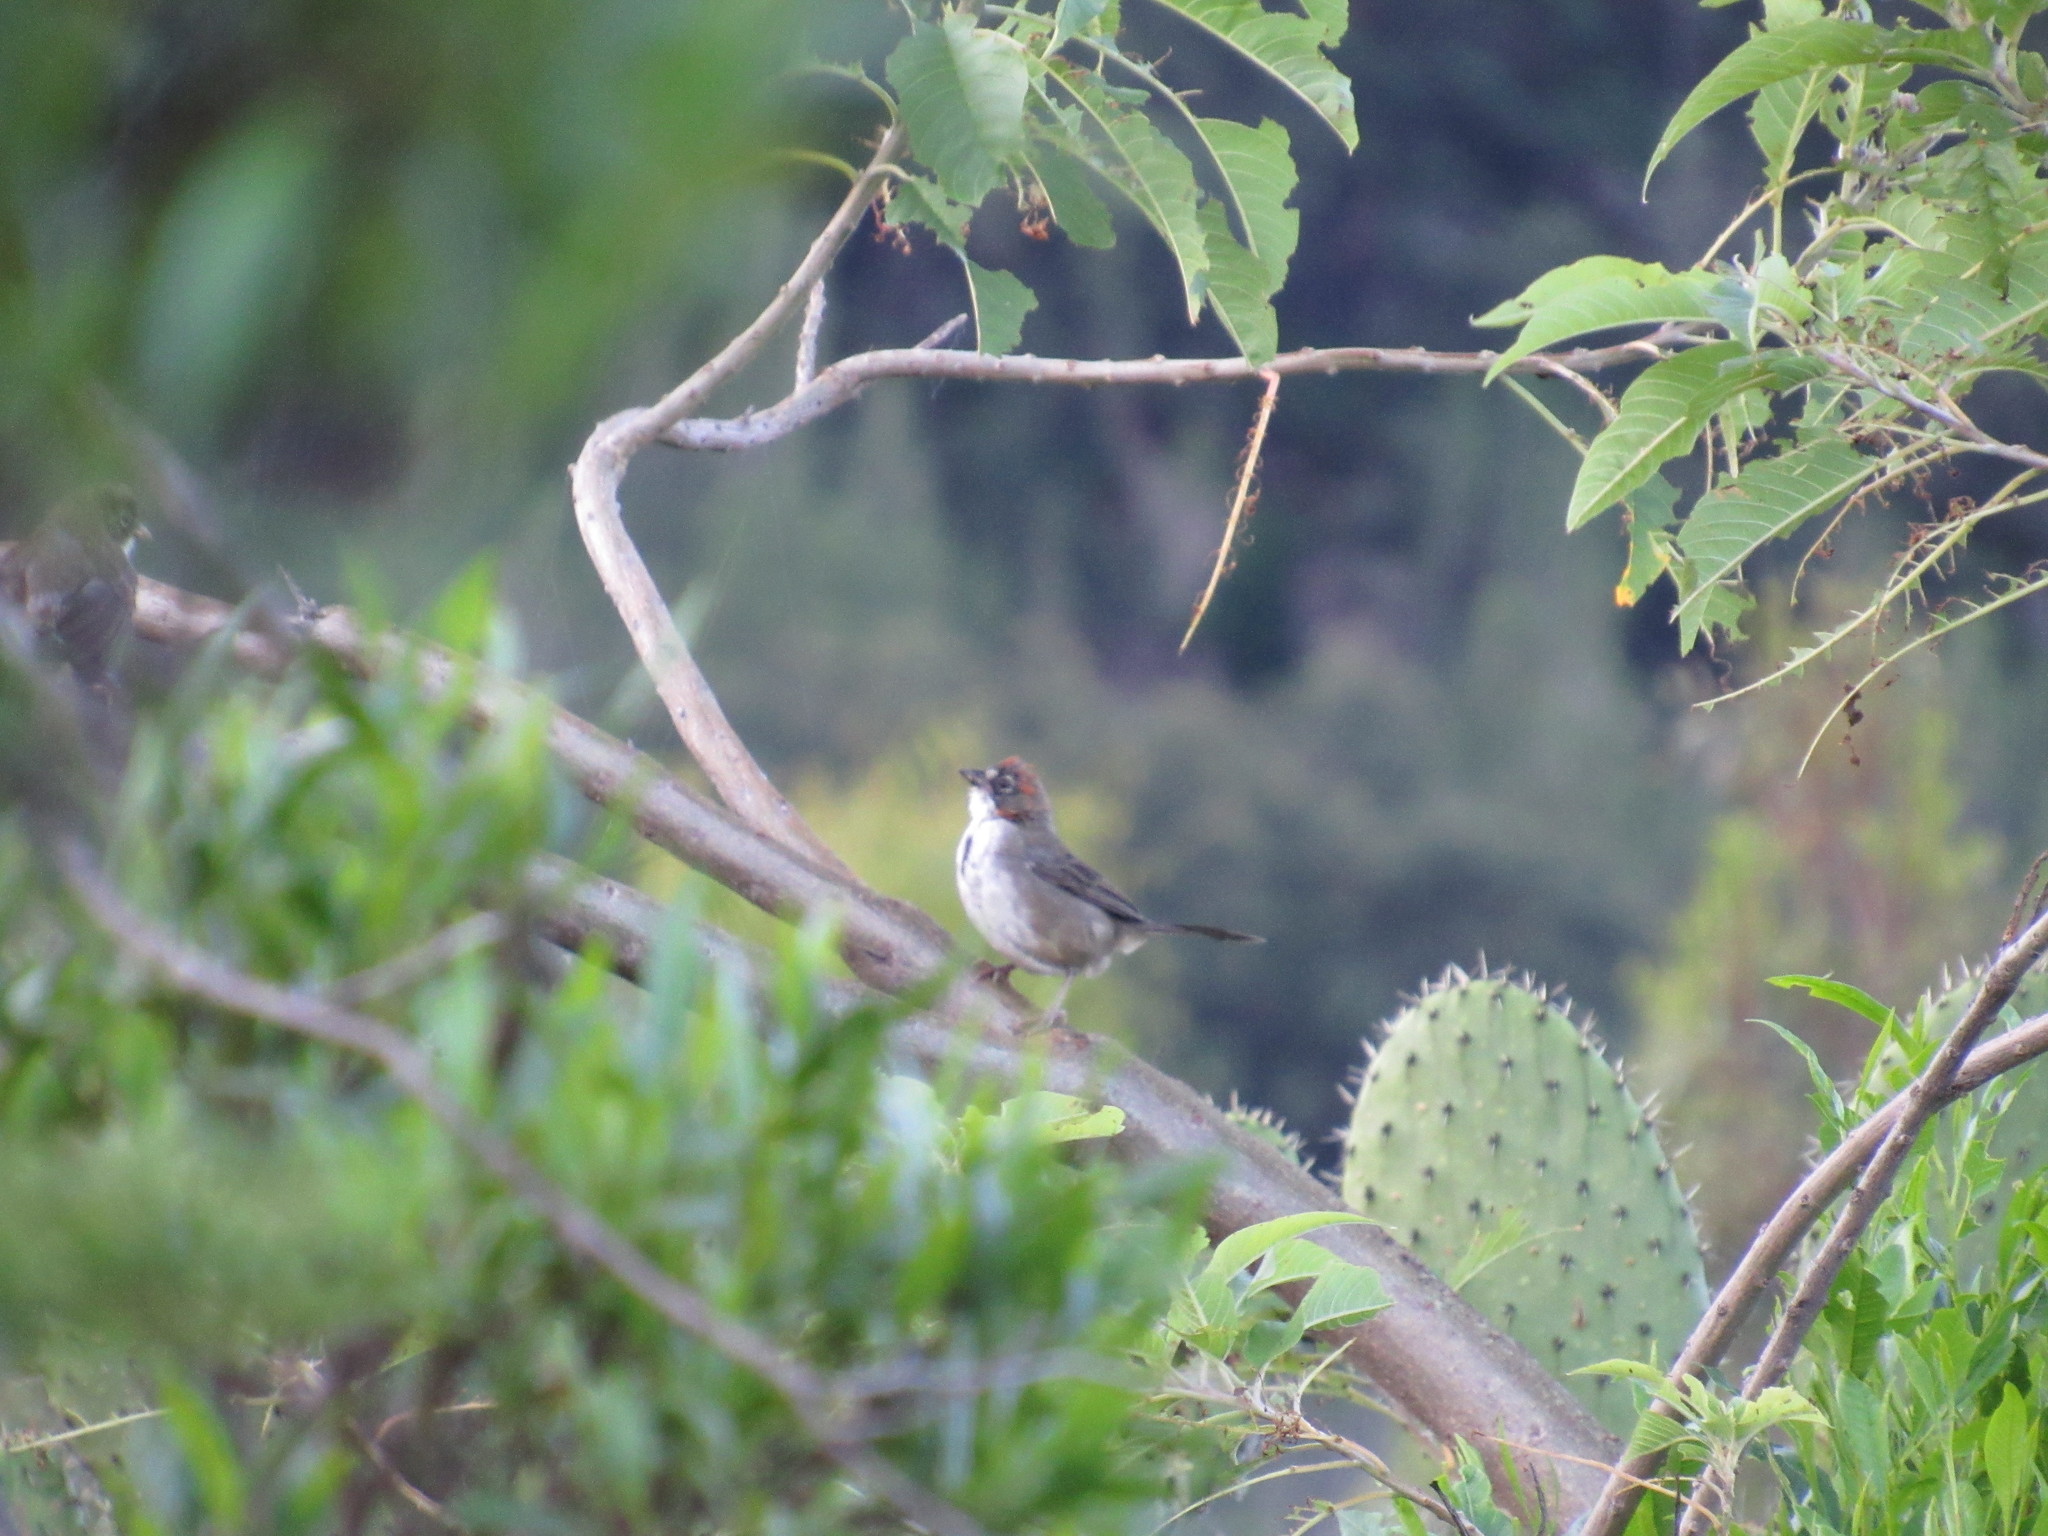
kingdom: Animalia
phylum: Chordata
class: Aves
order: Passeriformes
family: Passerellidae
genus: Melozone
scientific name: Melozone kieneri
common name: Rusty-crowned ground-sparrow
